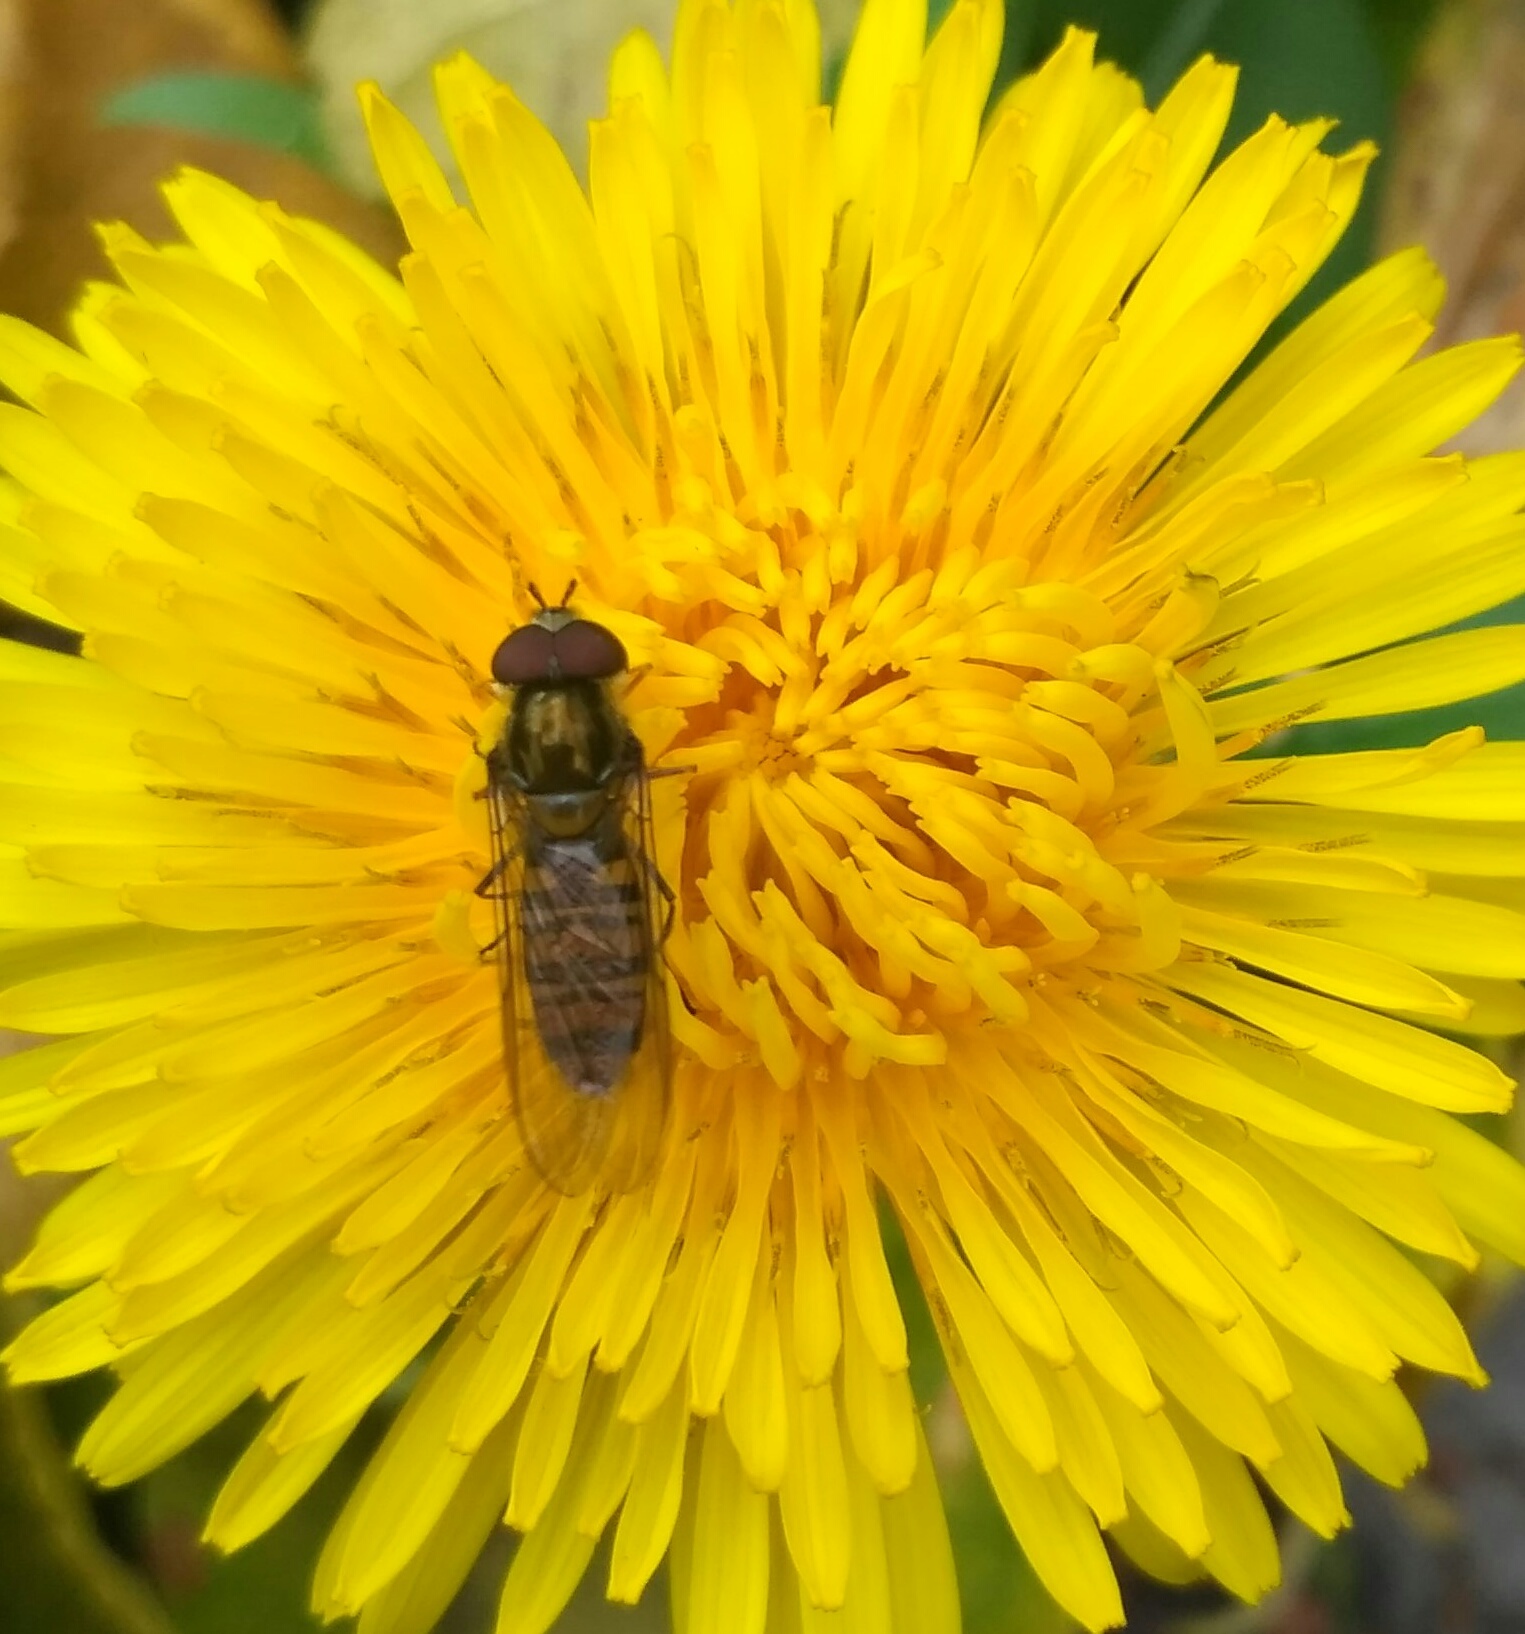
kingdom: Animalia
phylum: Arthropoda
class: Insecta
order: Diptera
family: Syrphidae
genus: Episyrphus
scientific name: Episyrphus balteatus
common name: Marmalade hoverfly
